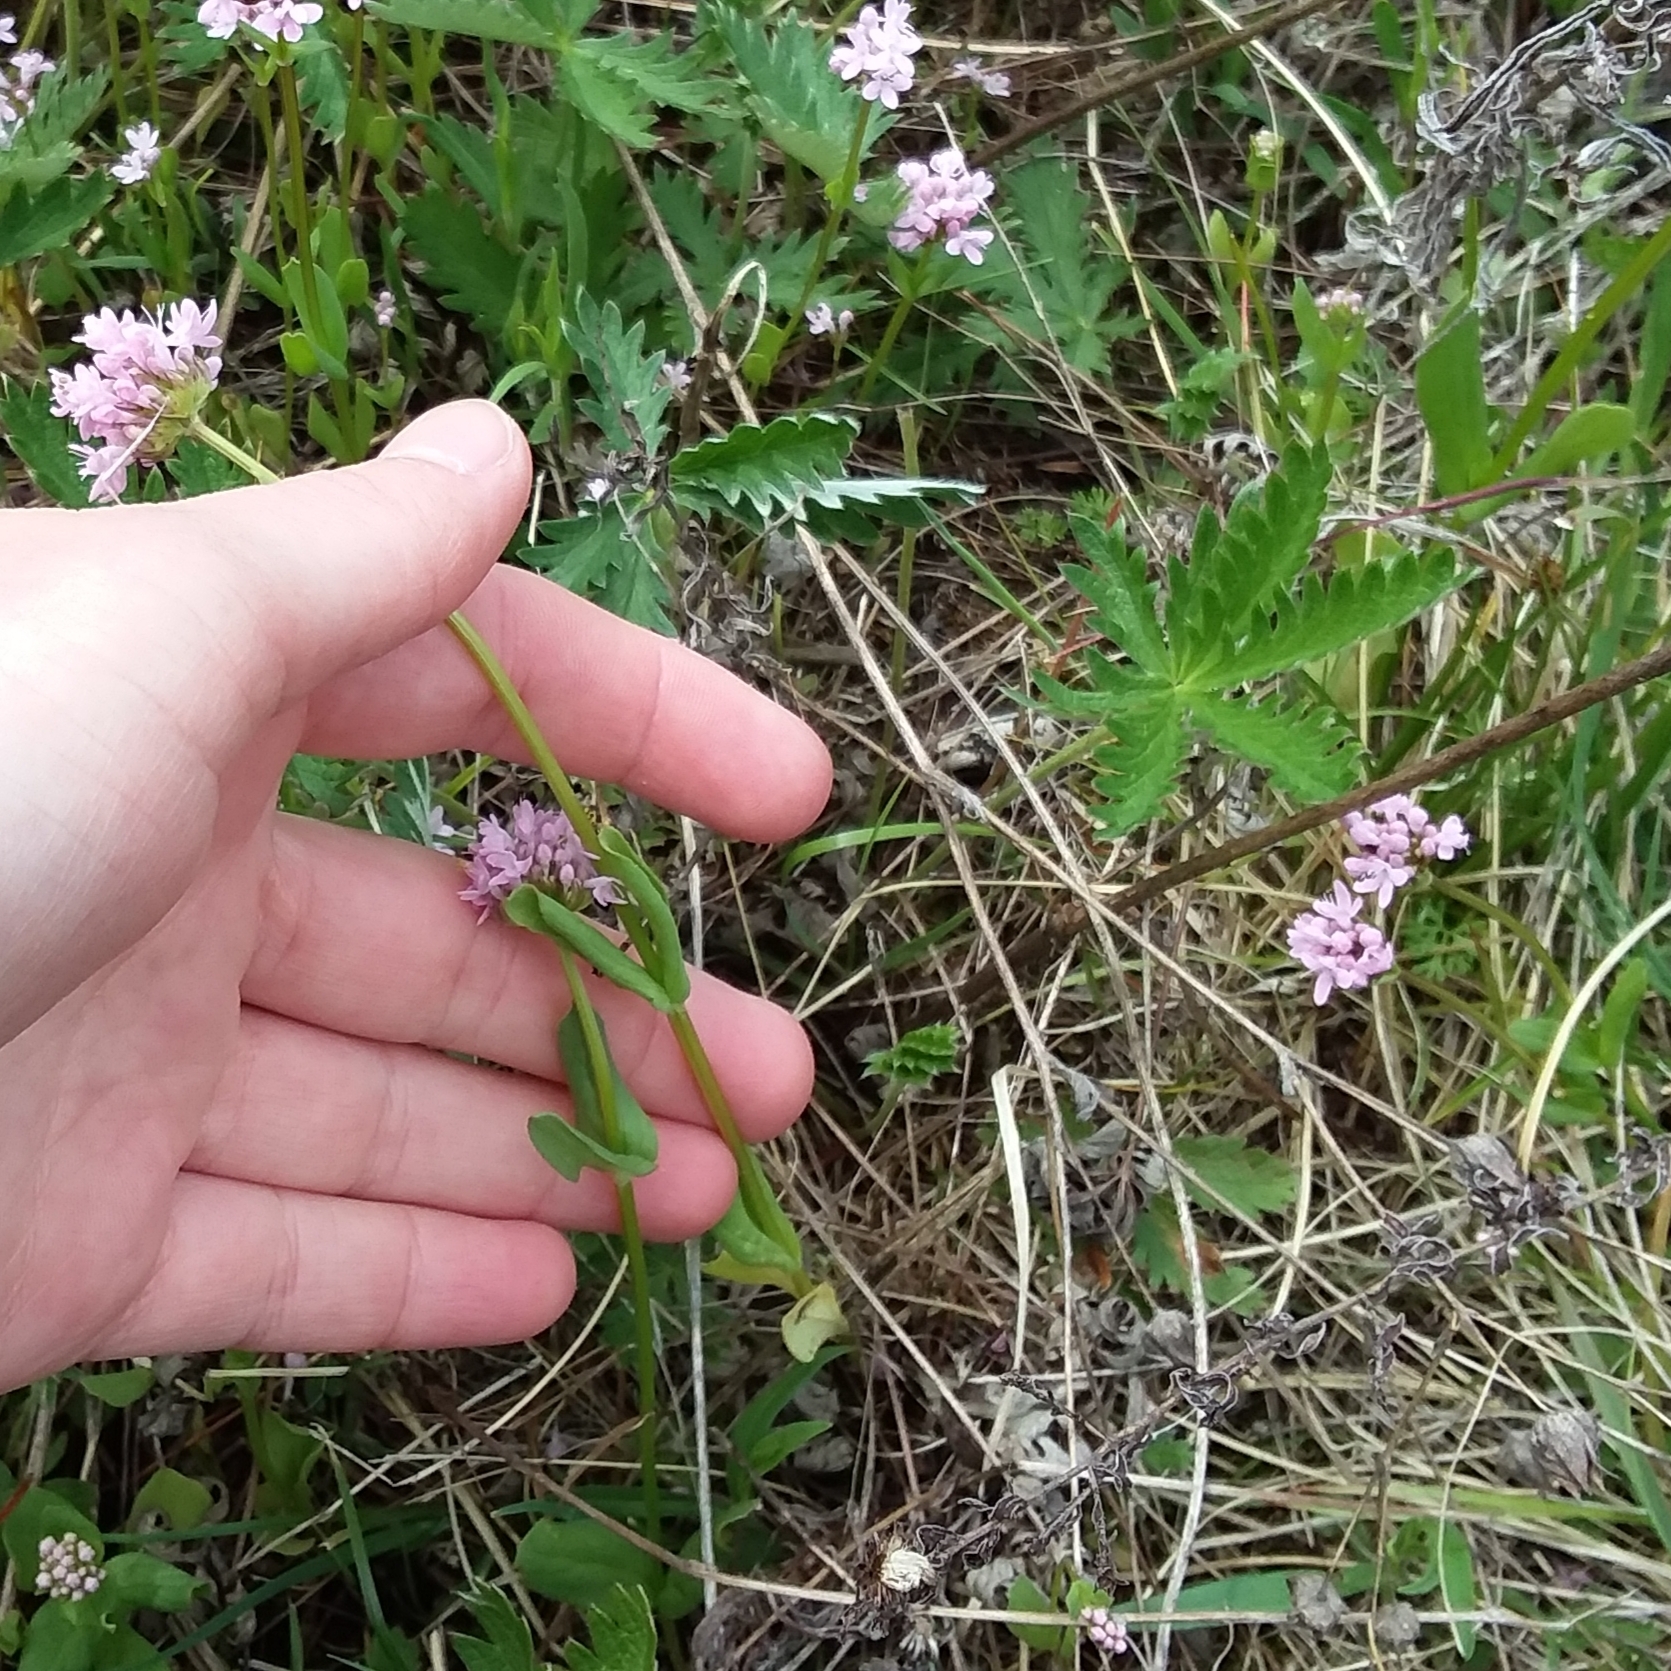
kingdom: Plantae
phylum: Tracheophyta
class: Magnoliopsida
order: Dipsacales
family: Caprifoliaceae
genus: Plectritis
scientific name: Plectritis congesta
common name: Pink plectritis
